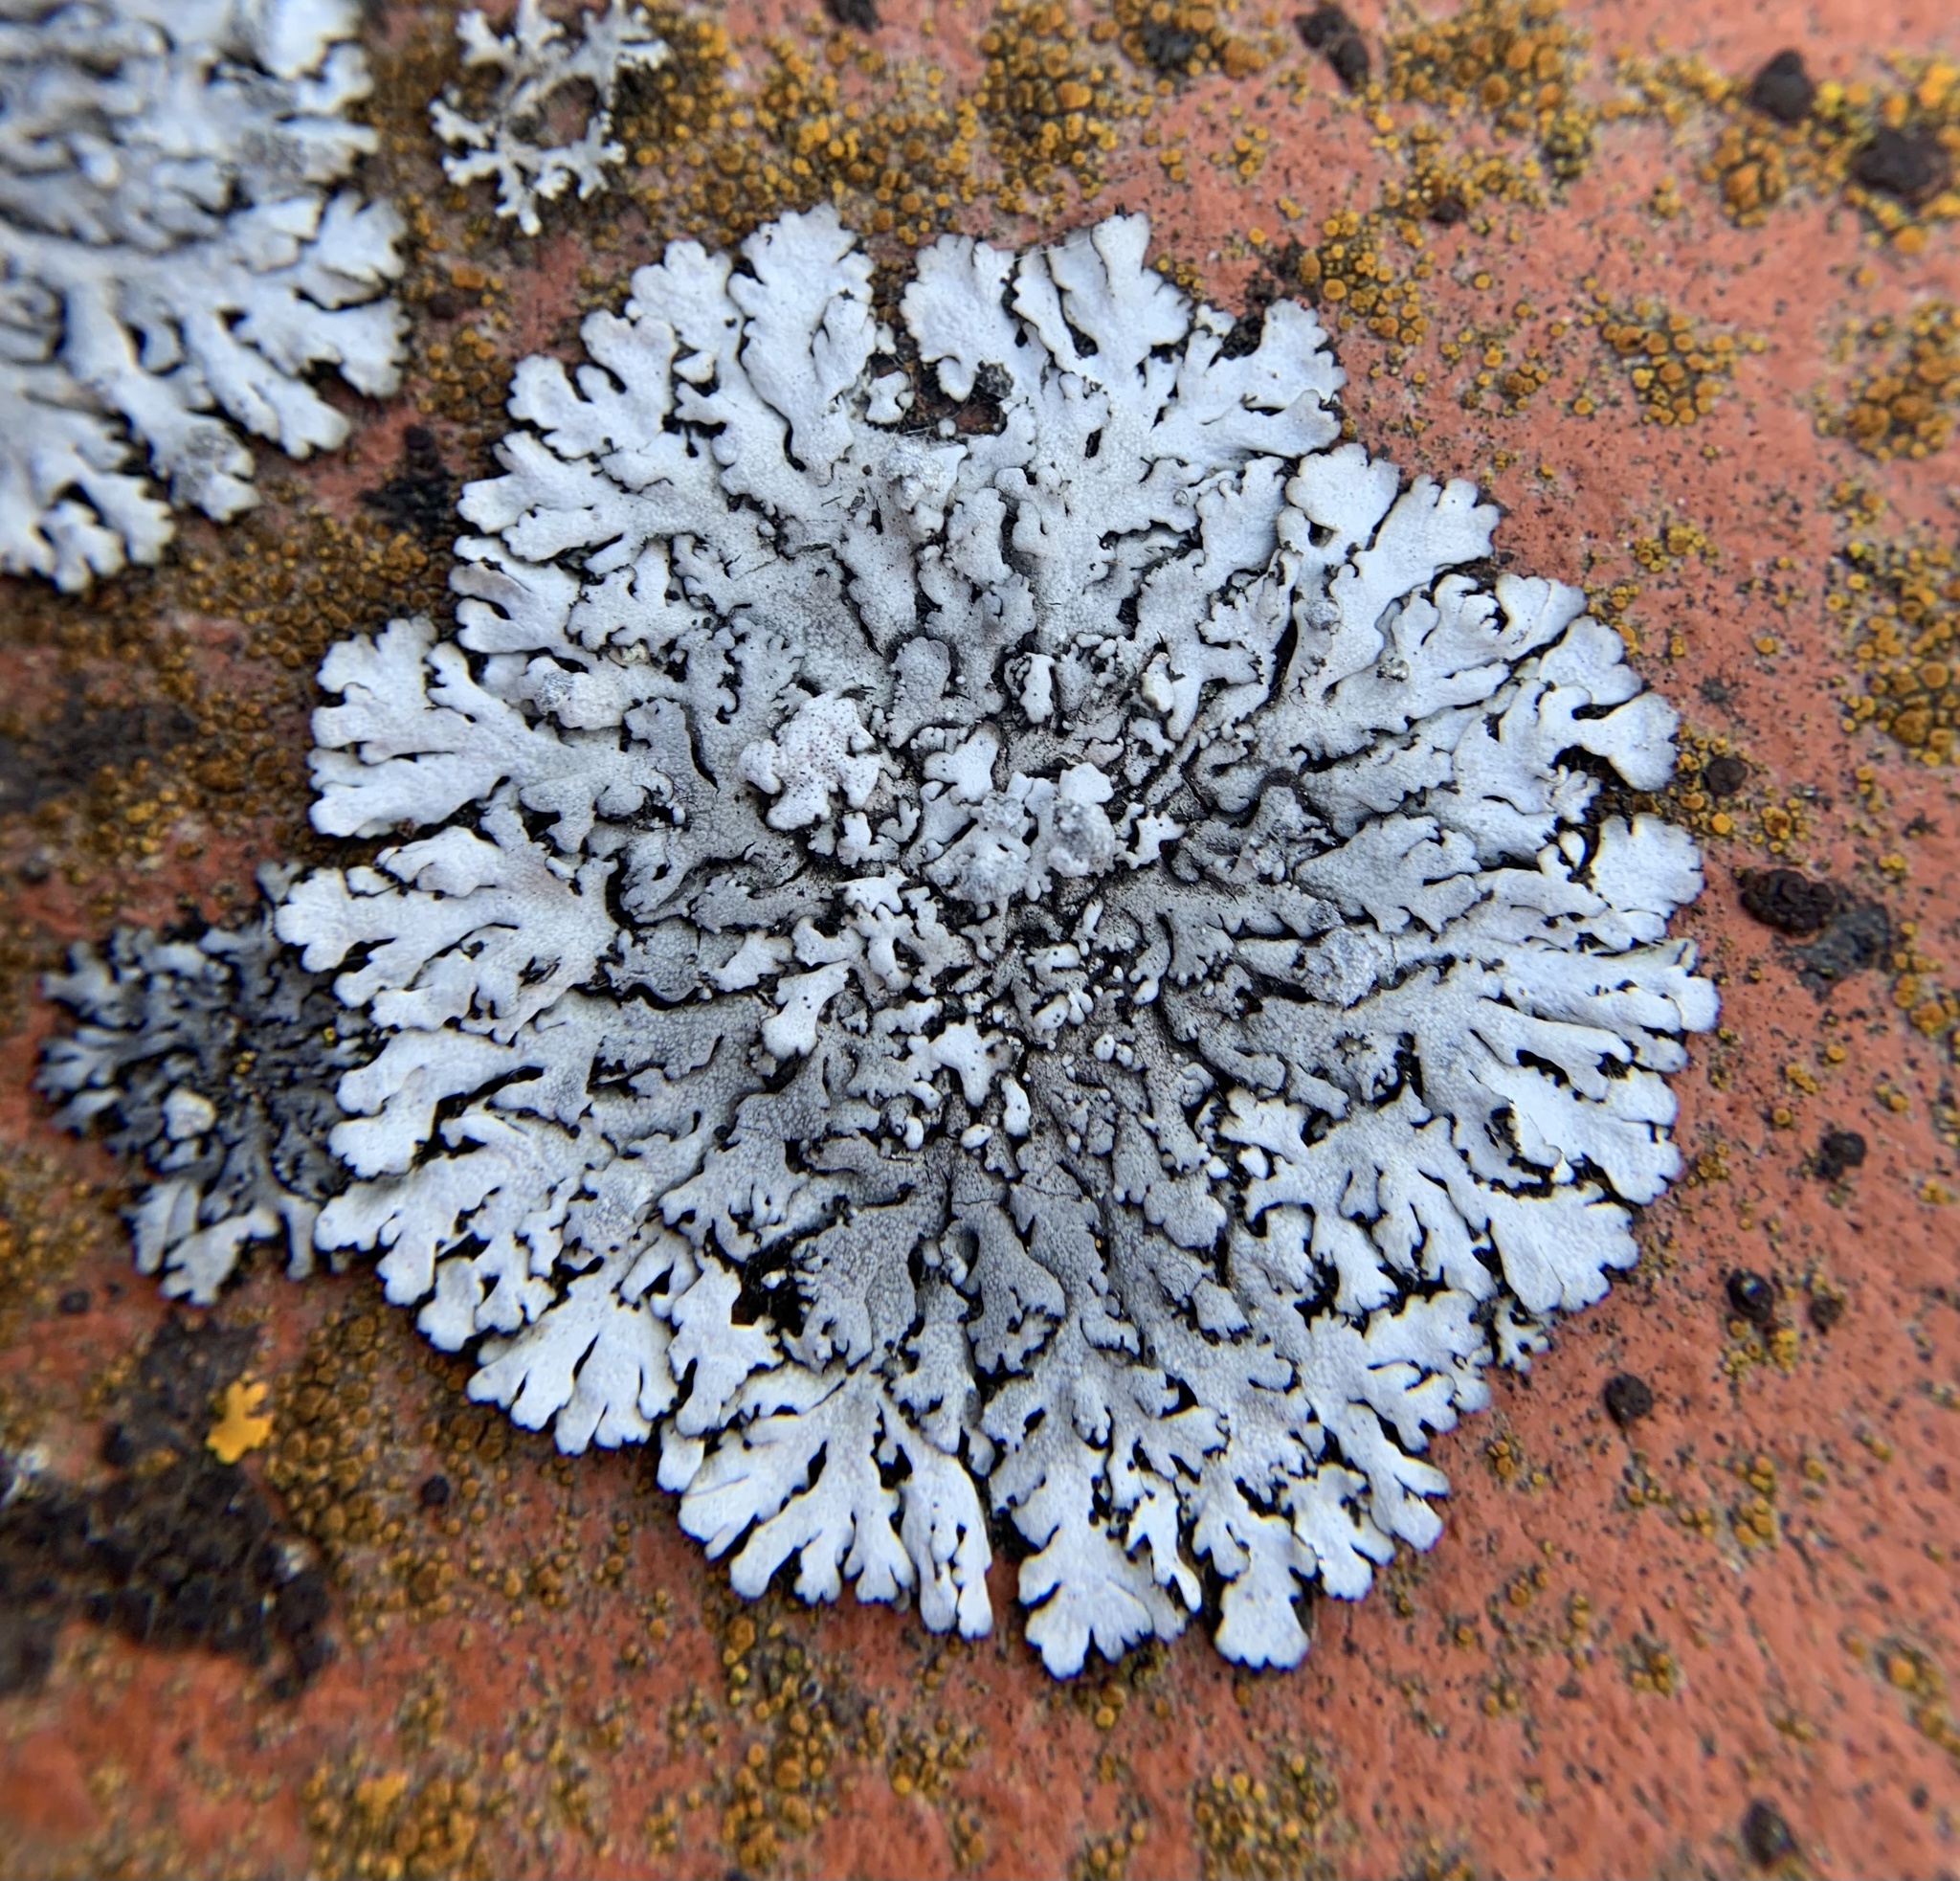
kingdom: Fungi
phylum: Ascomycota
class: Lecanoromycetes
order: Caliciales
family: Physciaceae
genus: Physcia
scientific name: Physcia caesia
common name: Blue-gray rosette lichen
